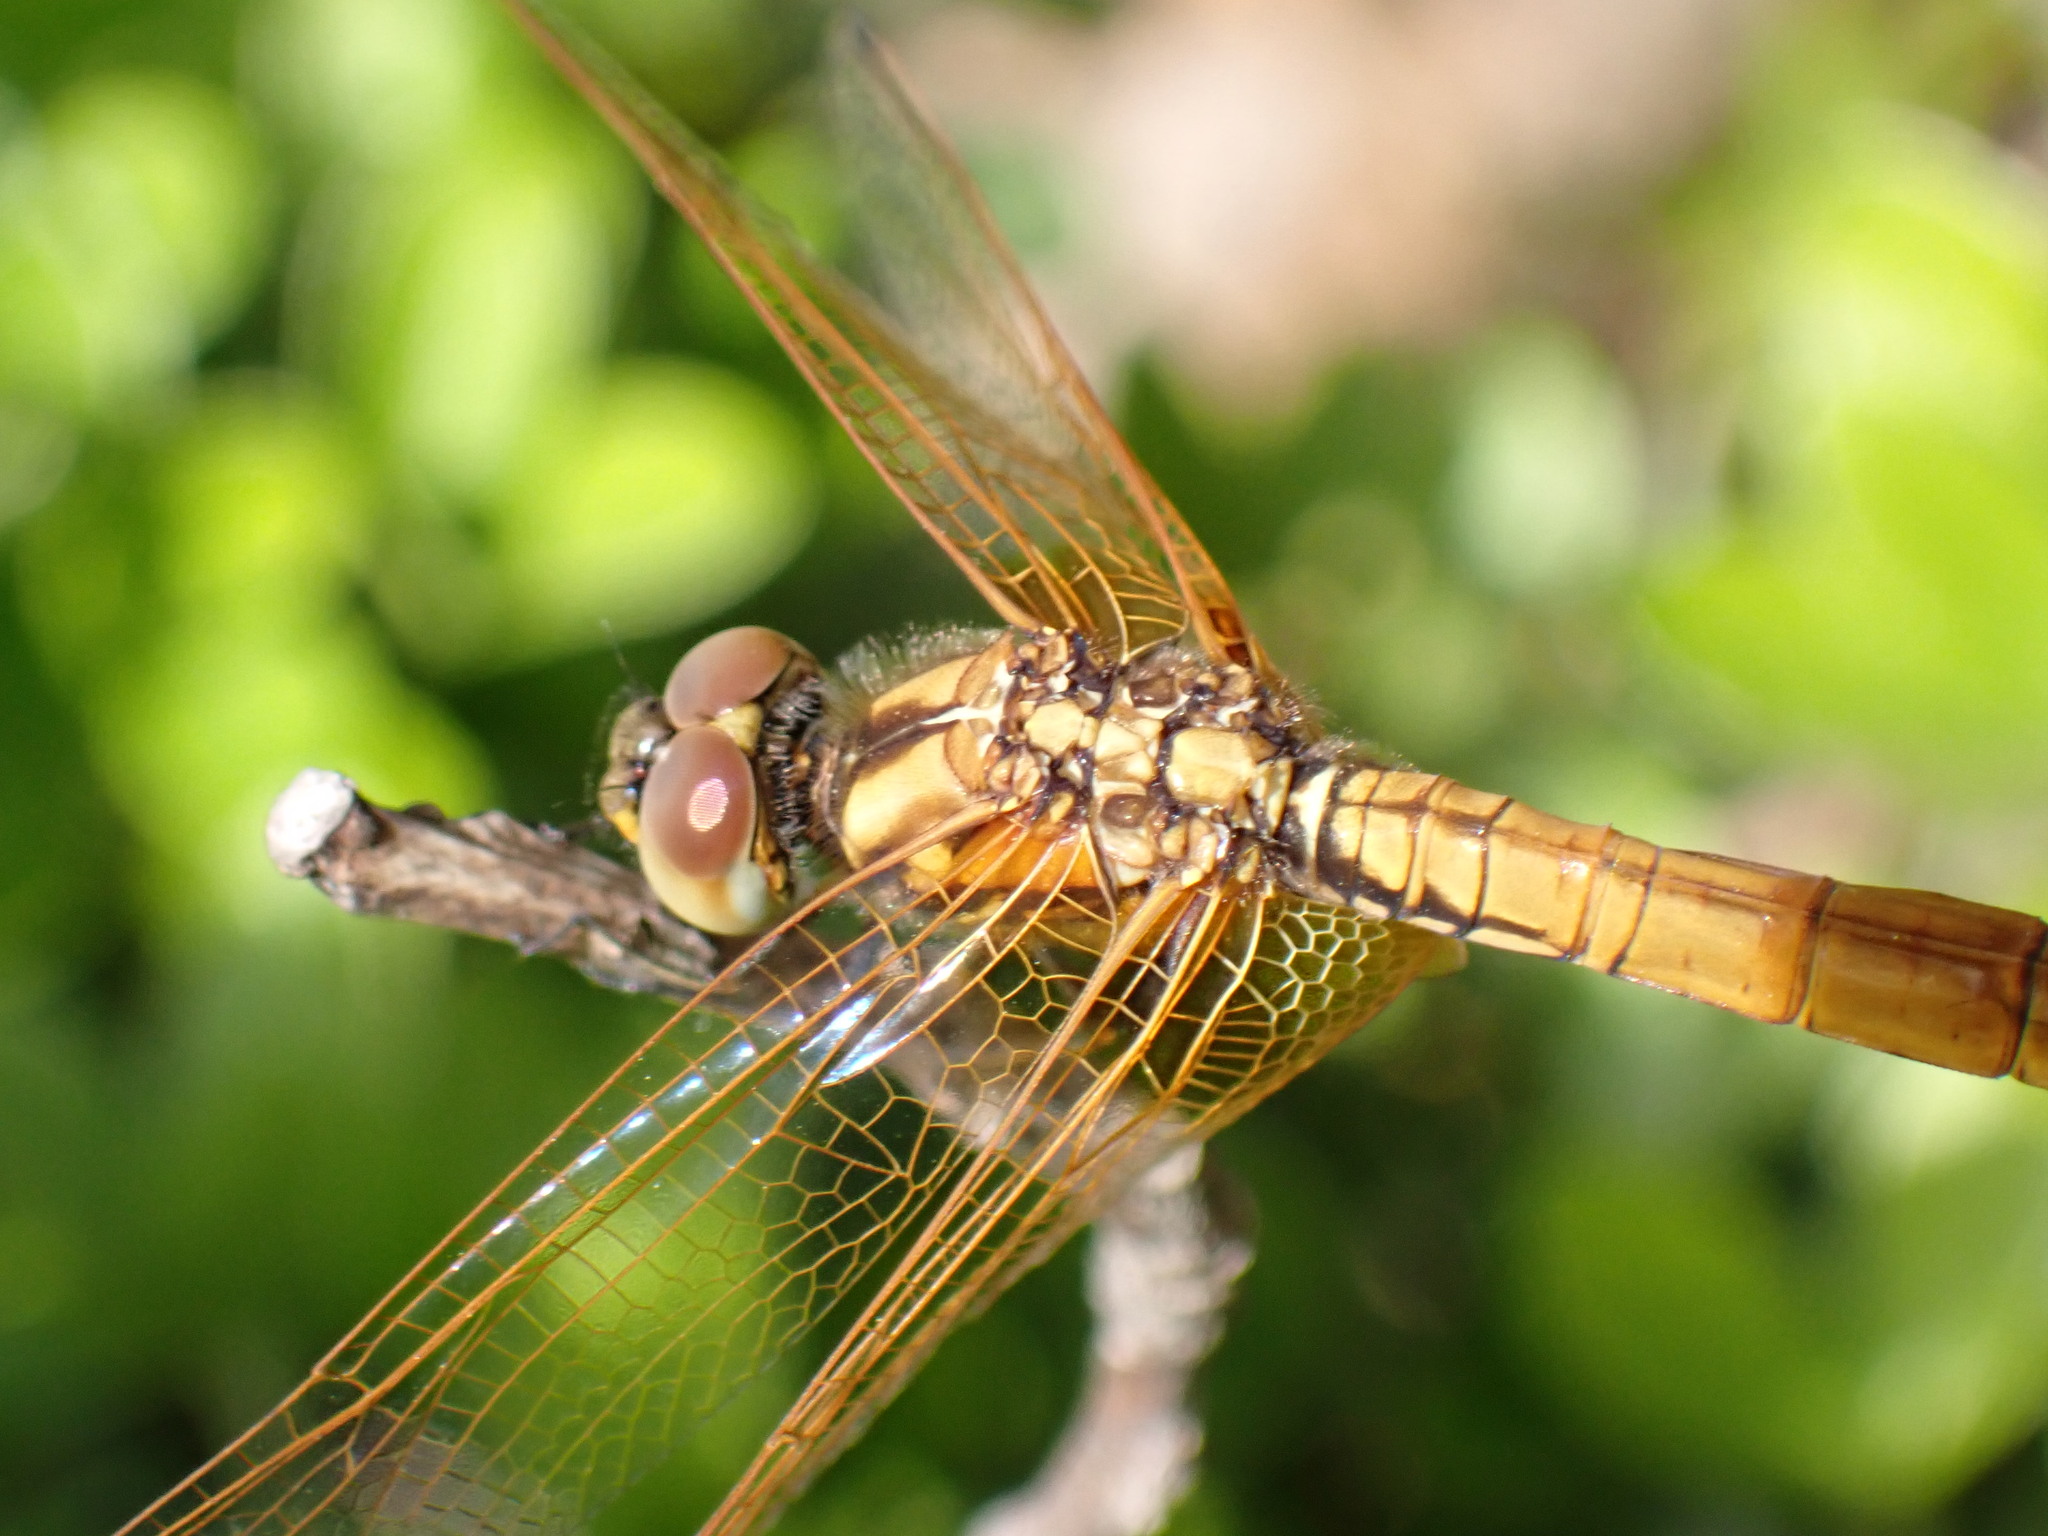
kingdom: Animalia
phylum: Arthropoda
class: Insecta
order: Odonata
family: Libellulidae
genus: Trithemis
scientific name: Trithemis aurora
